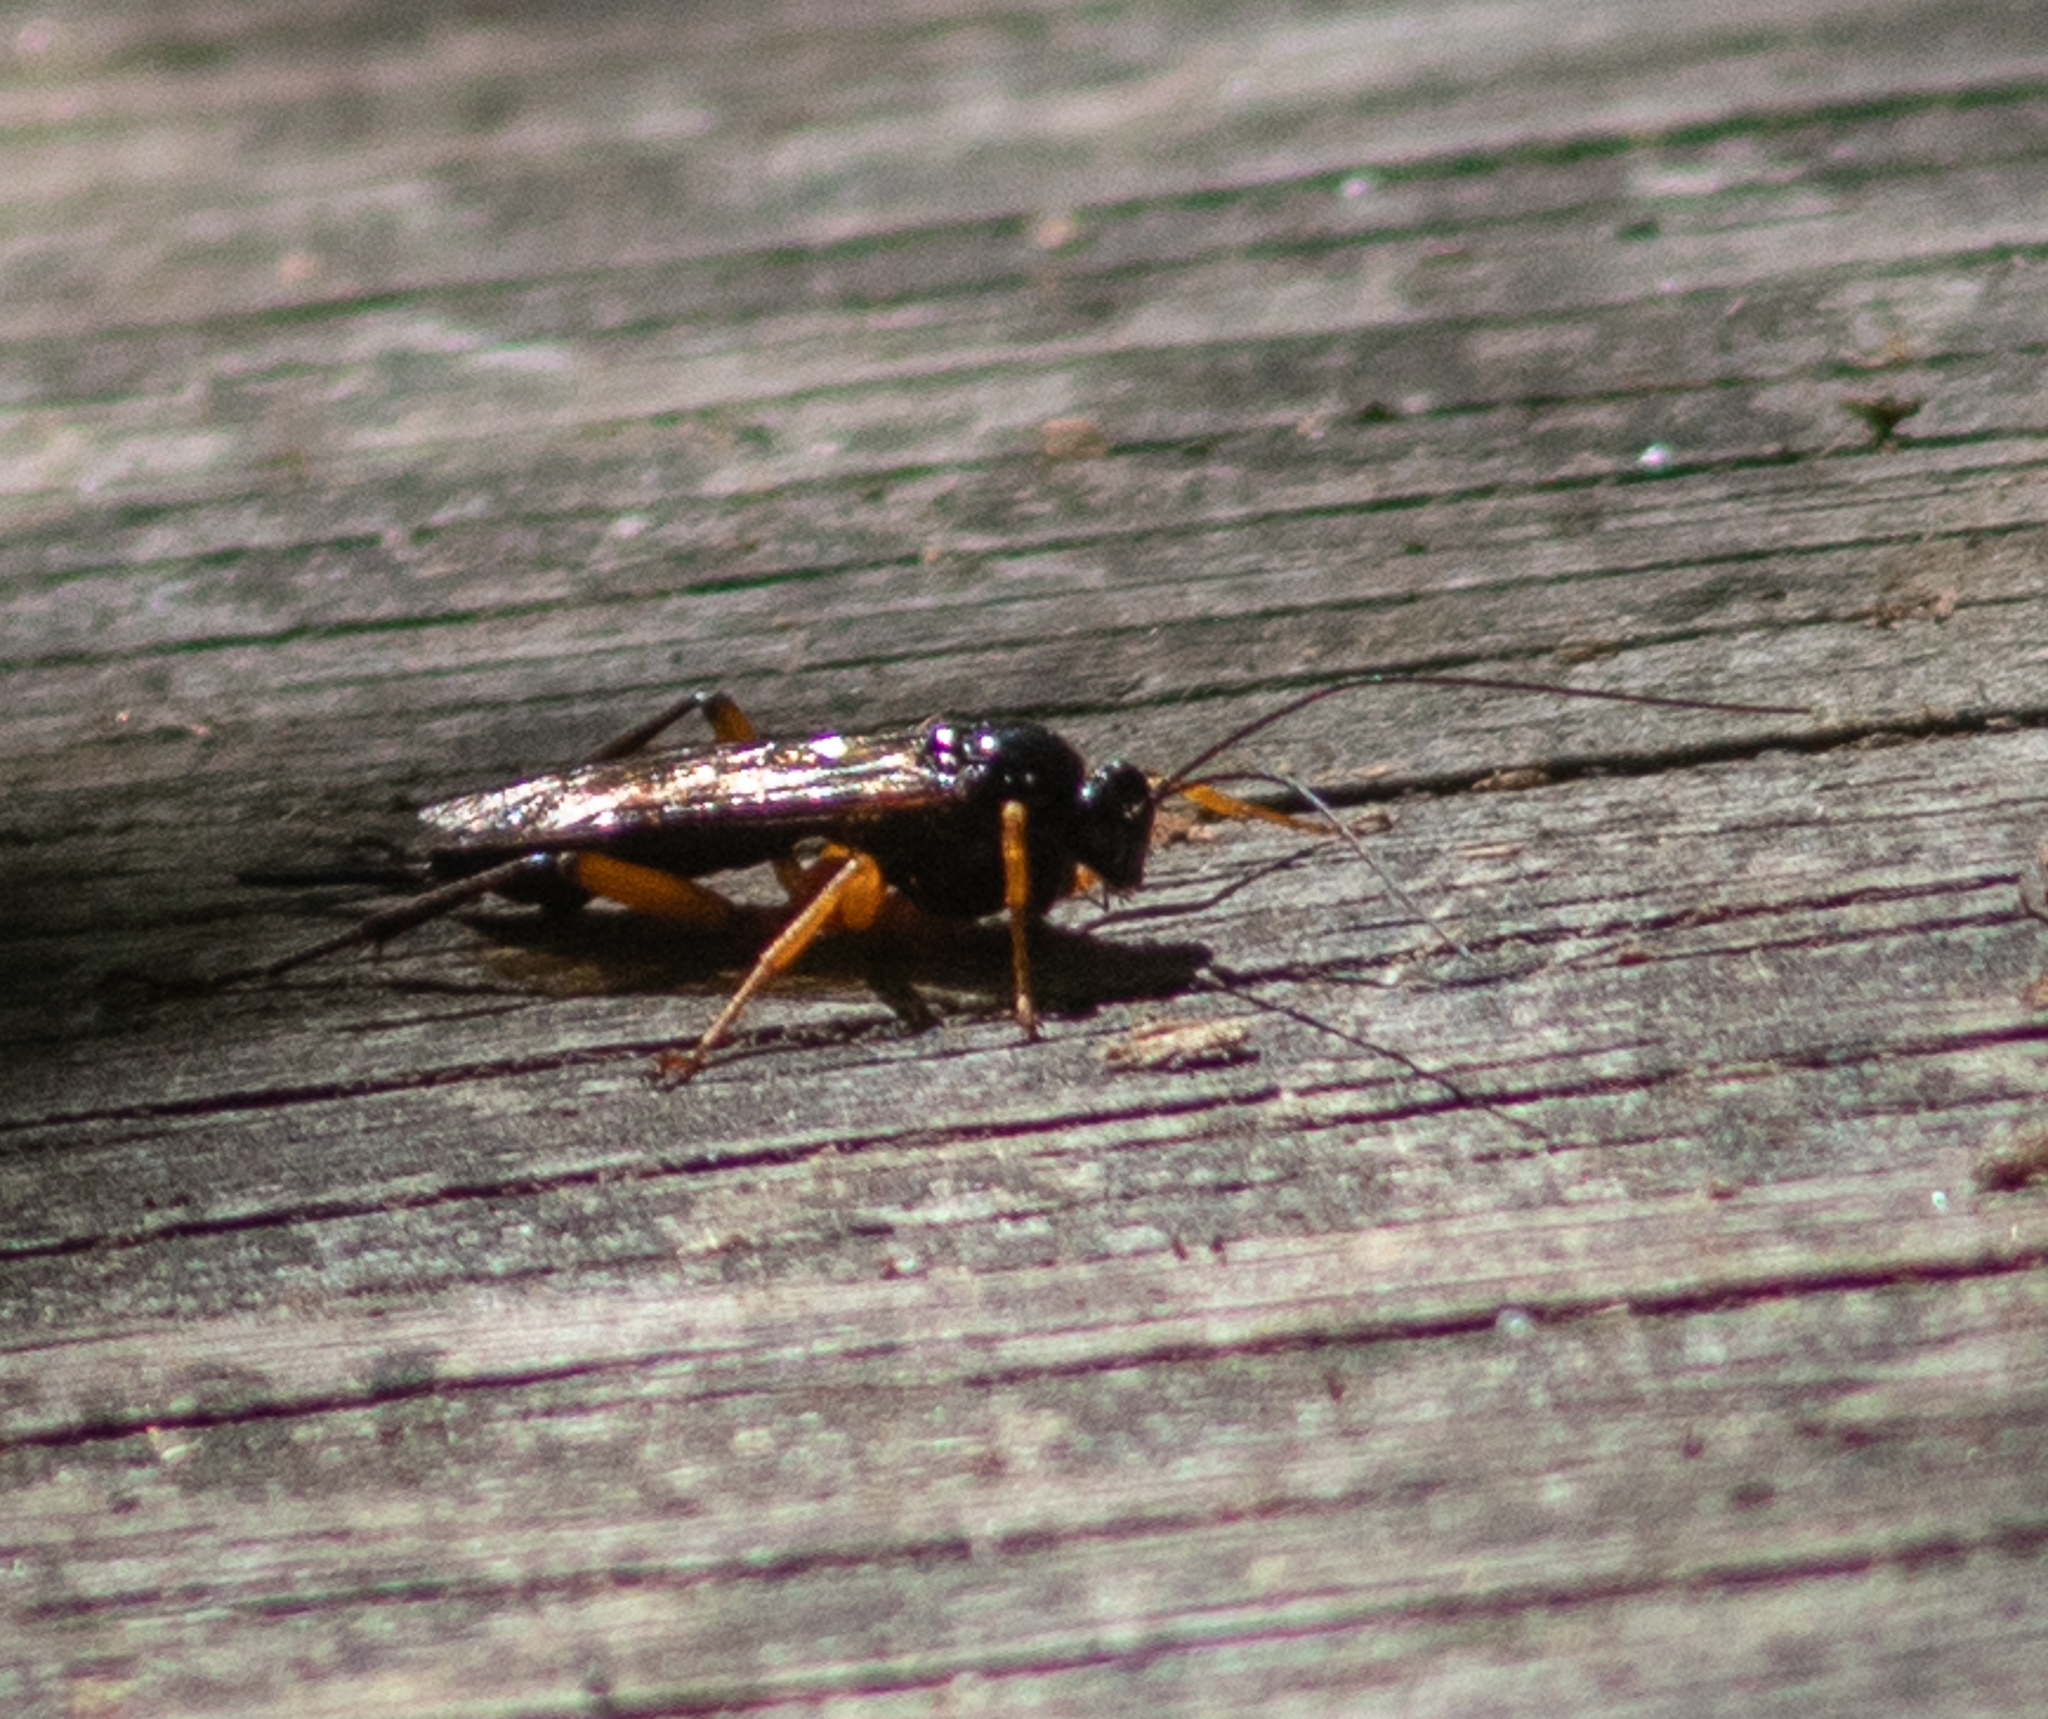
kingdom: Animalia
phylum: Arthropoda
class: Insecta
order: Hymenoptera
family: Ichneumonidae
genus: Pimpla
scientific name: Pimpla pedalis
